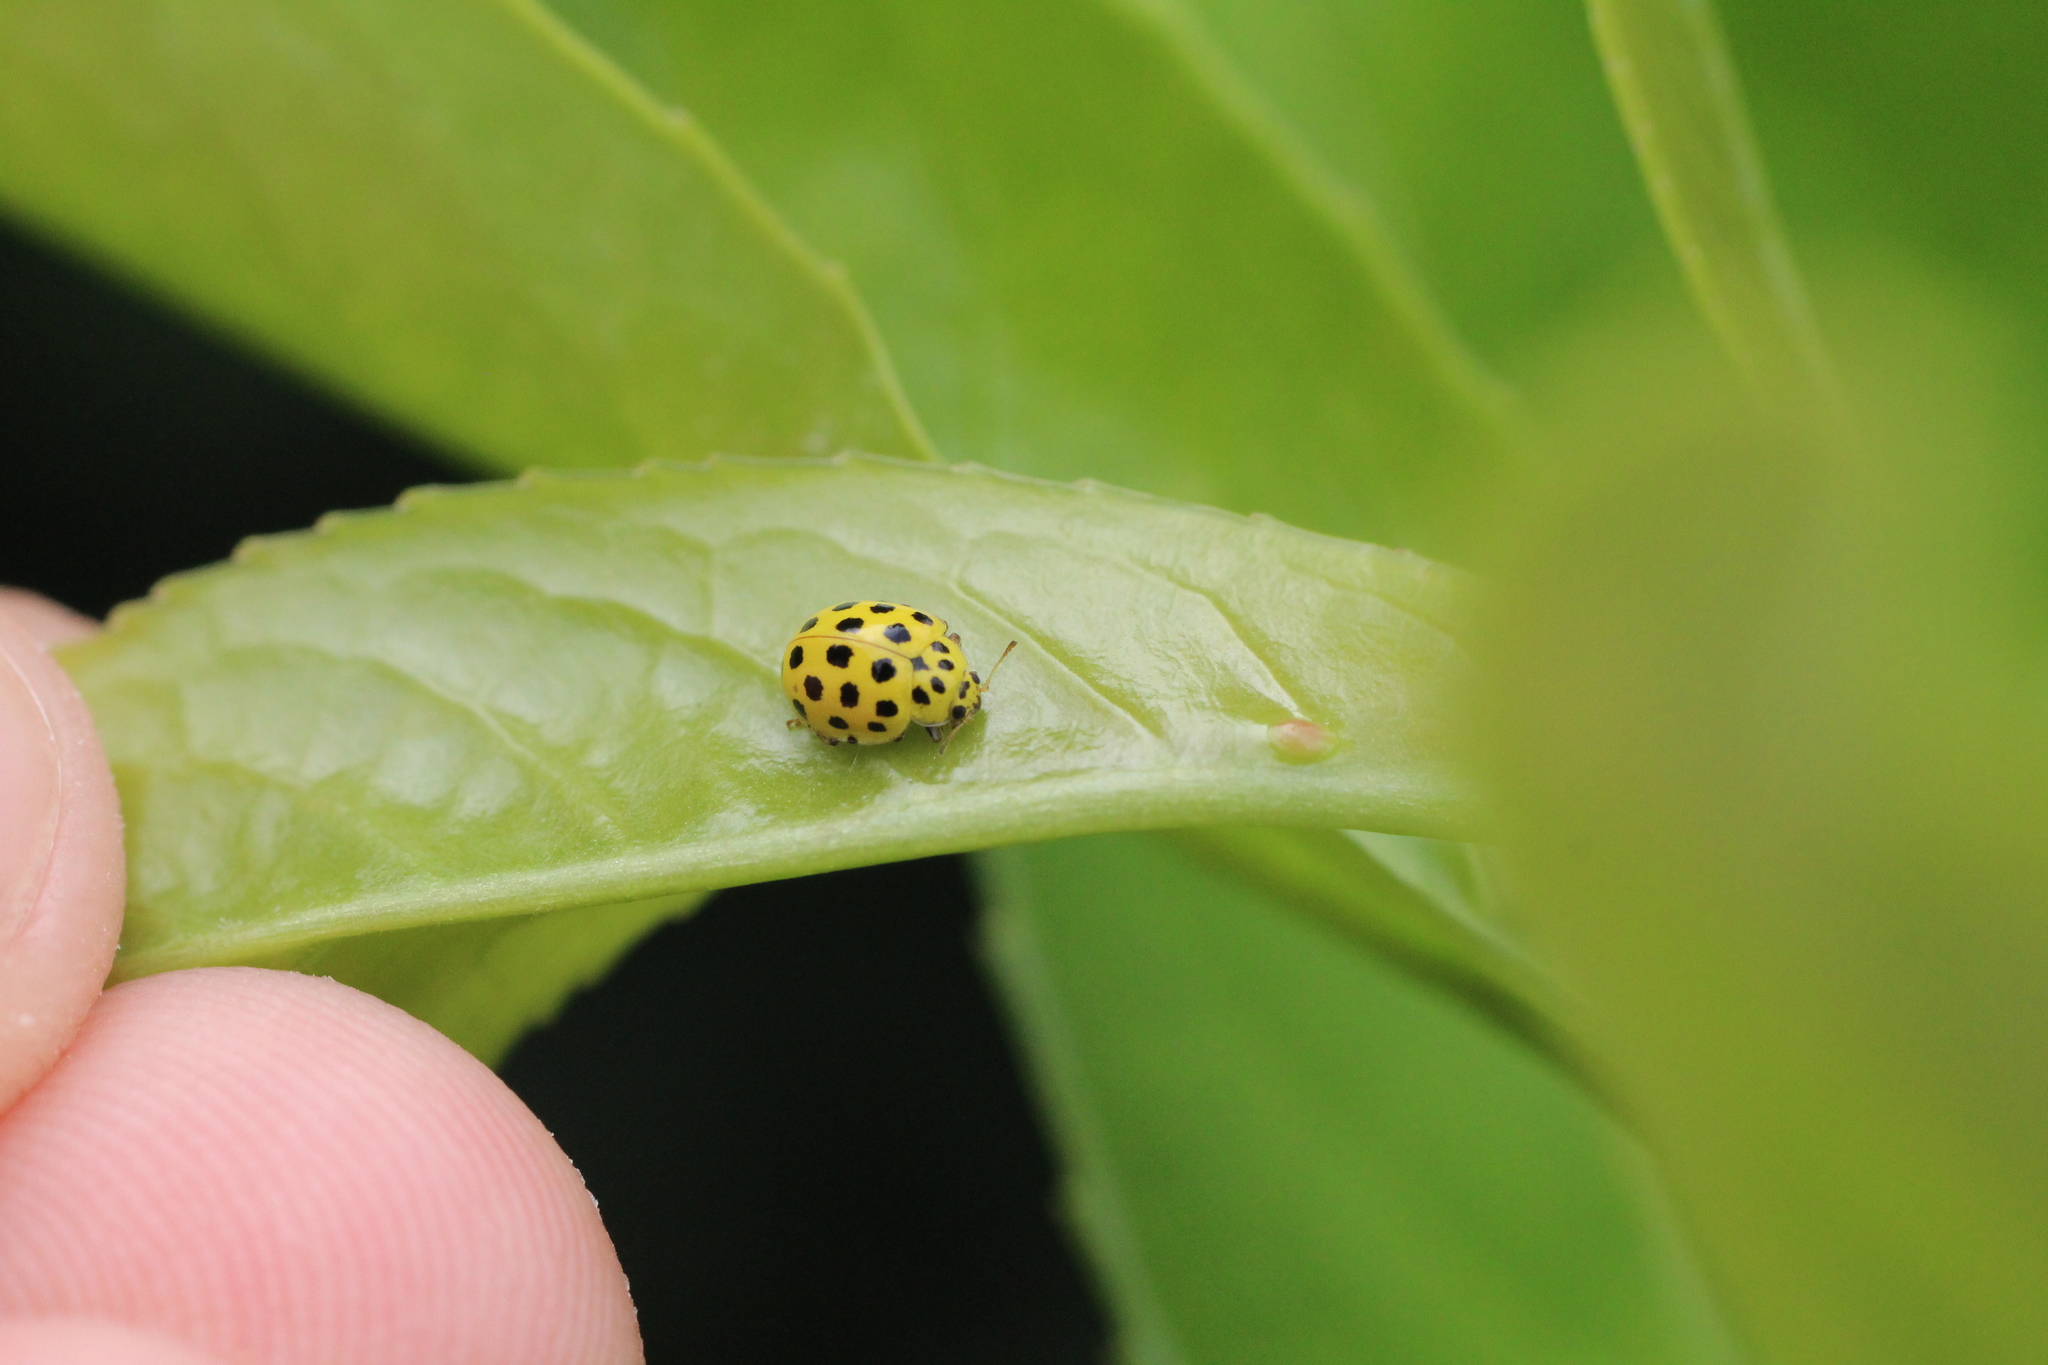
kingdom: Animalia
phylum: Arthropoda
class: Insecta
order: Coleoptera
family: Coccinellidae
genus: Psyllobora
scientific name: Psyllobora vigintiduopunctata
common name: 22-spot ladybird
